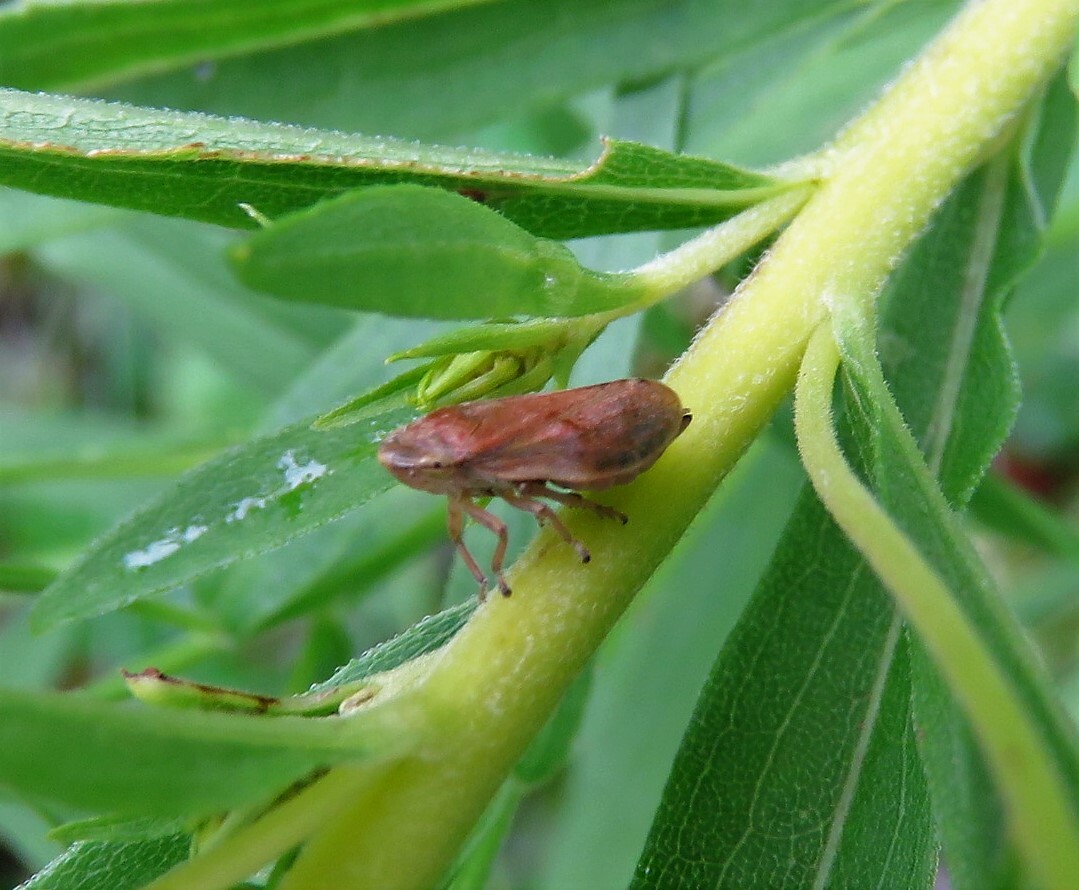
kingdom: Animalia
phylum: Arthropoda
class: Insecta
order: Hemiptera
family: Aphrophoridae
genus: Philaenus
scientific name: Philaenus spumarius
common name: Meadow spittlebug
